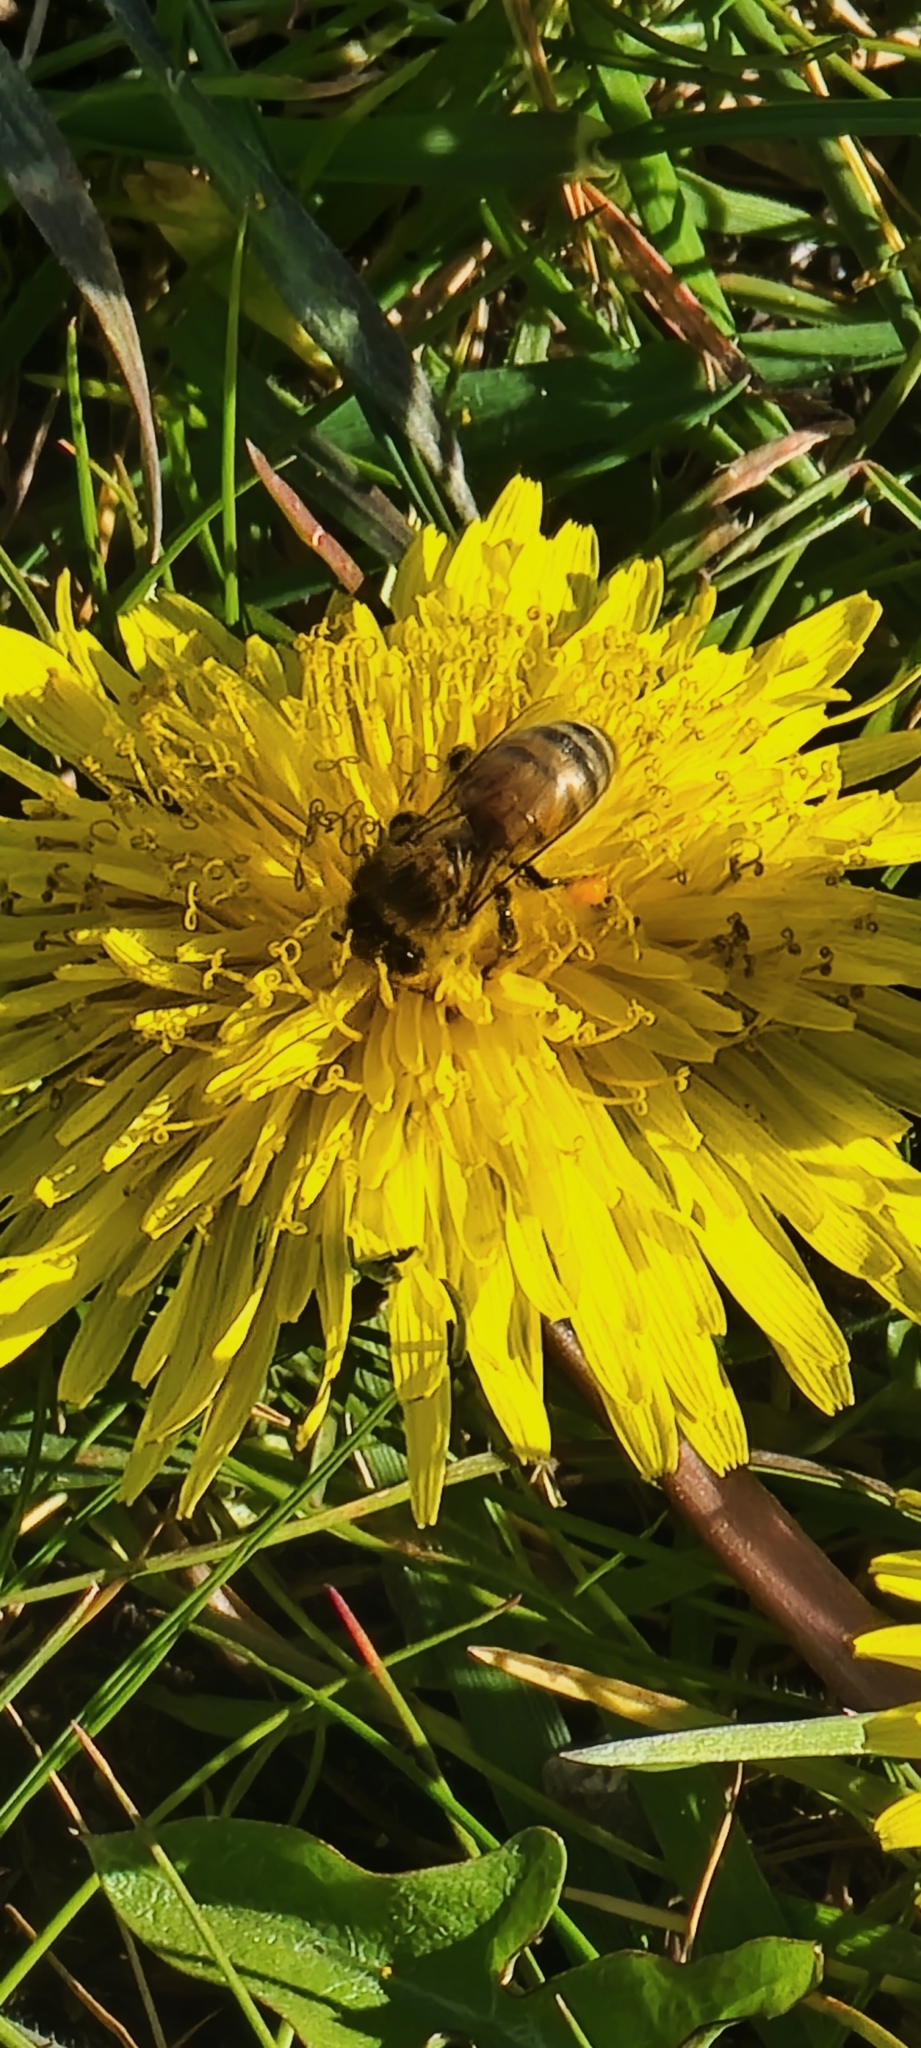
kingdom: Animalia
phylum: Arthropoda
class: Insecta
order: Hymenoptera
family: Apidae
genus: Apis
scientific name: Apis mellifera
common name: Honey bee
